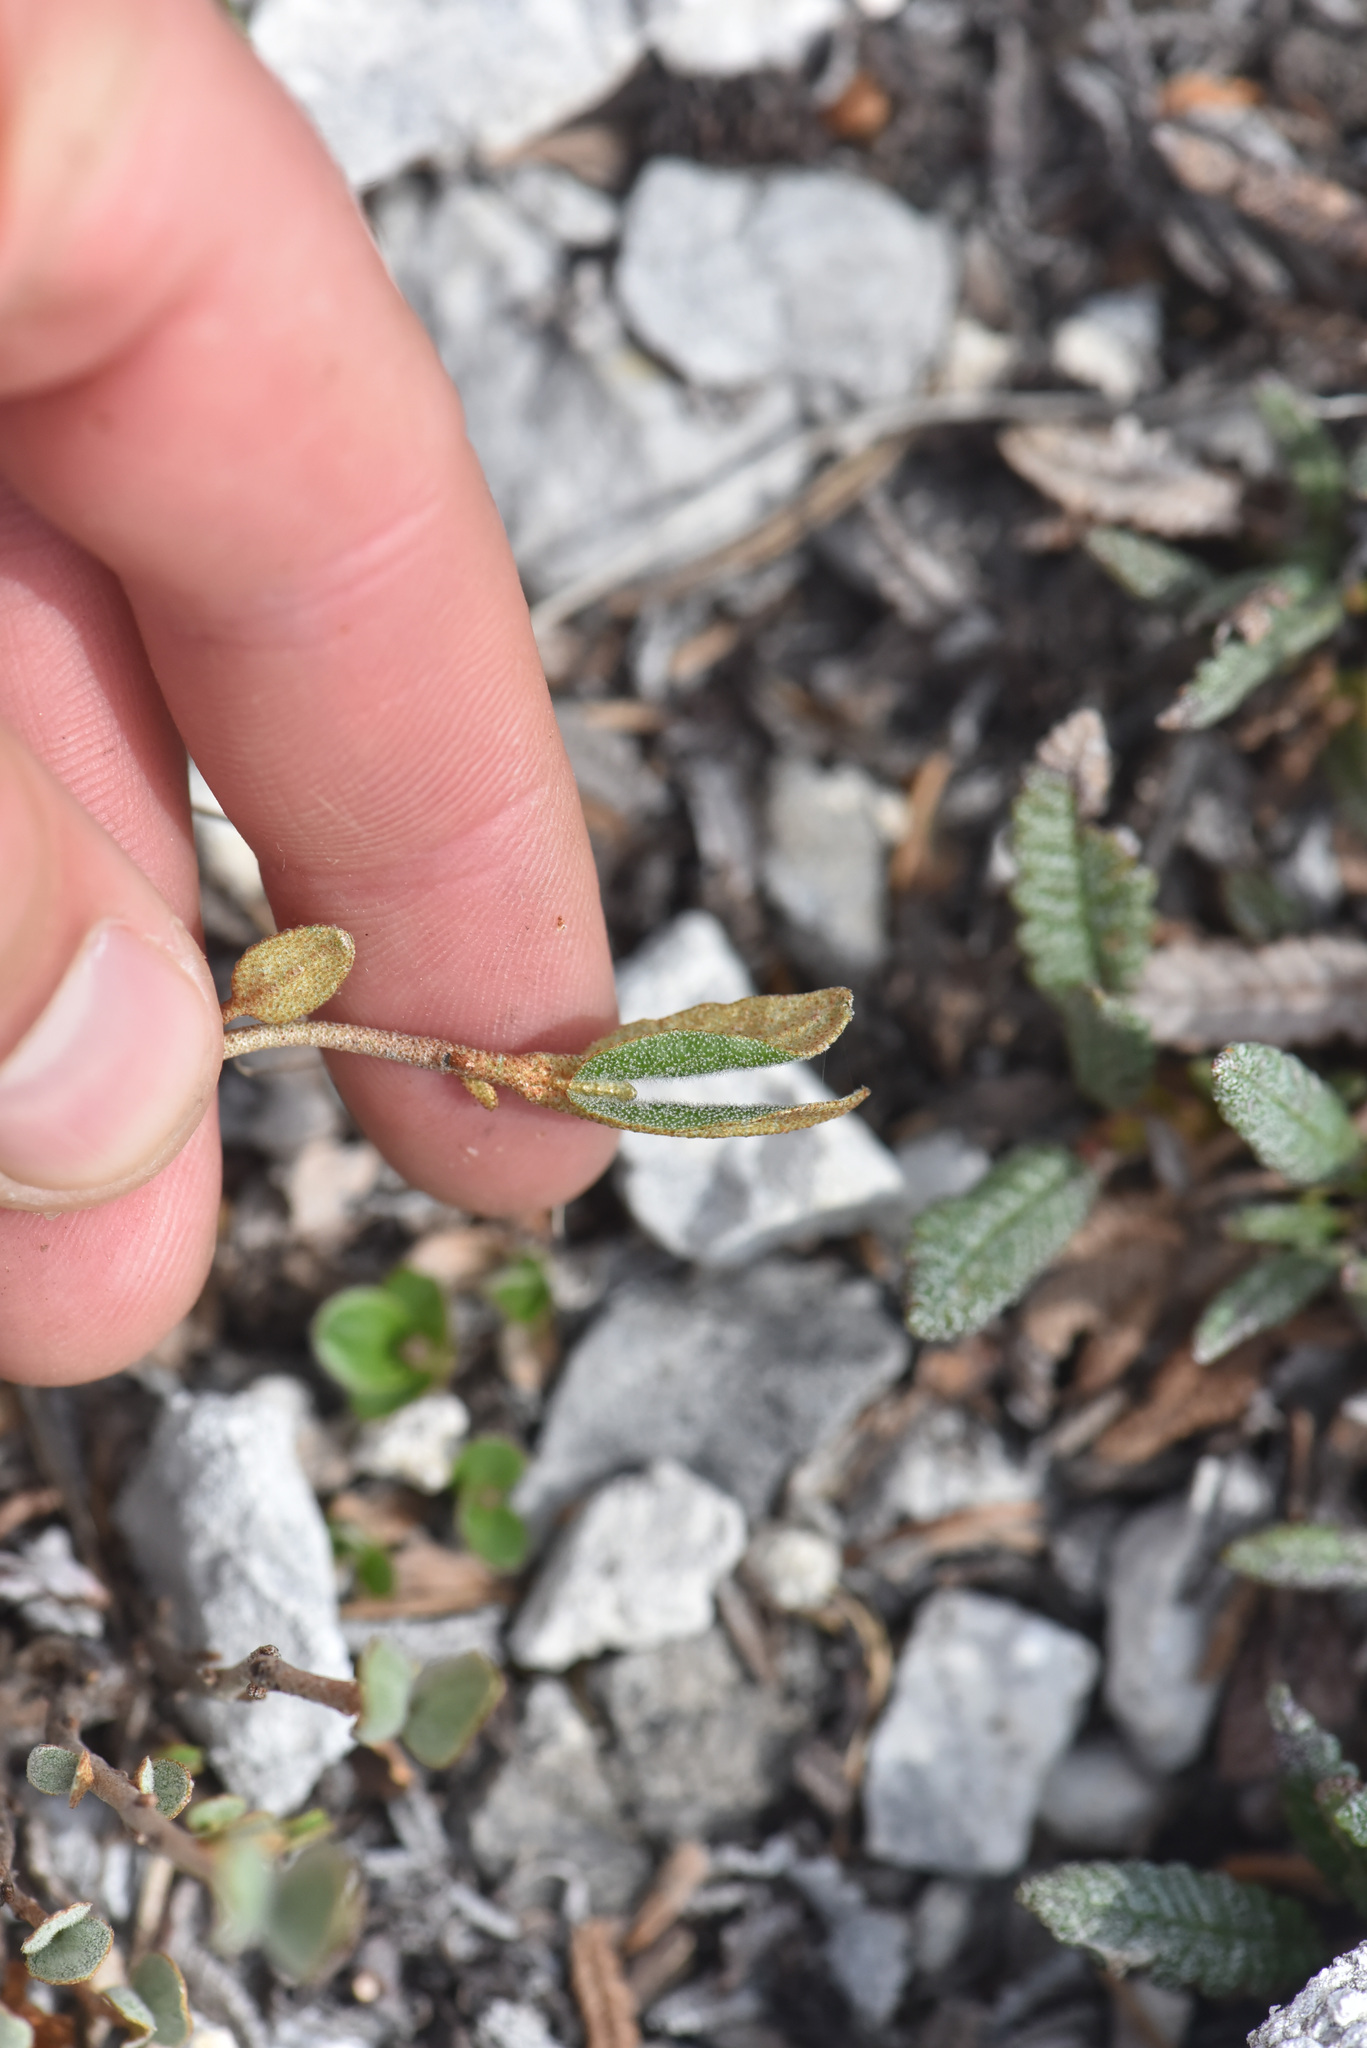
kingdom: Plantae
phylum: Tracheophyta
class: Magnoliopsida
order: Rosales
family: Elaeagnaceae
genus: Shepherdia
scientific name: Shepherdia canadensis
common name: Soapberry
